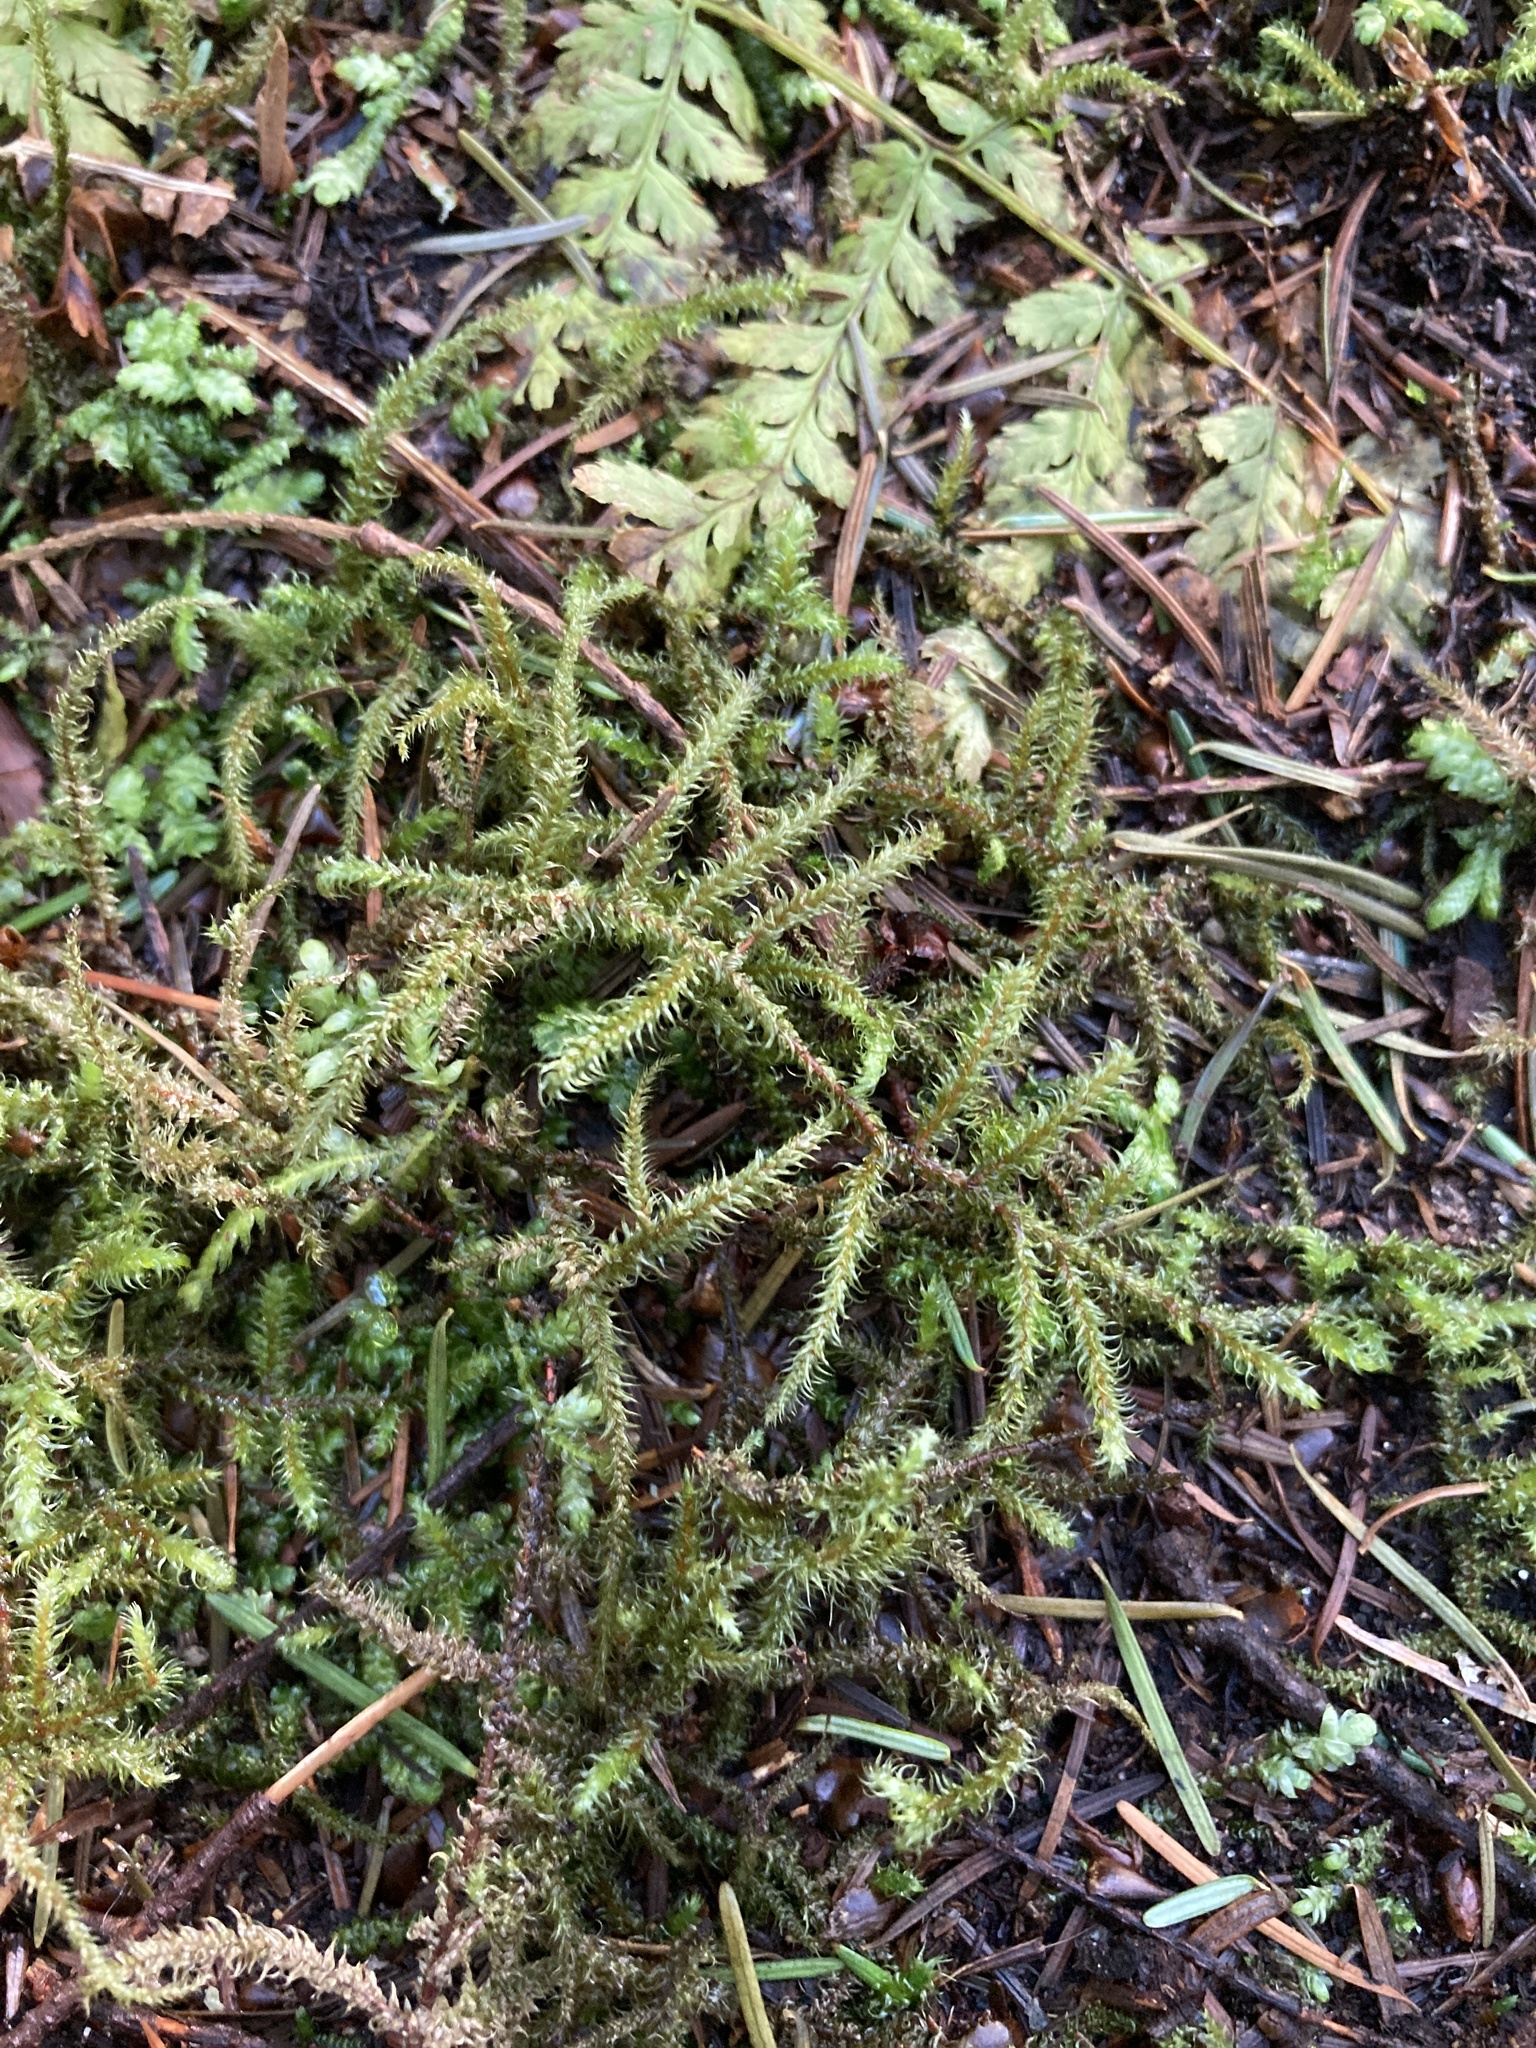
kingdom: Plantae
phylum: Bryophyta
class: Bryopsida
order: Hypnales
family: Hylocomiaceae
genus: Rhytidiadelphus
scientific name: Rhytidiadelphus loreus
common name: Lanky moss
